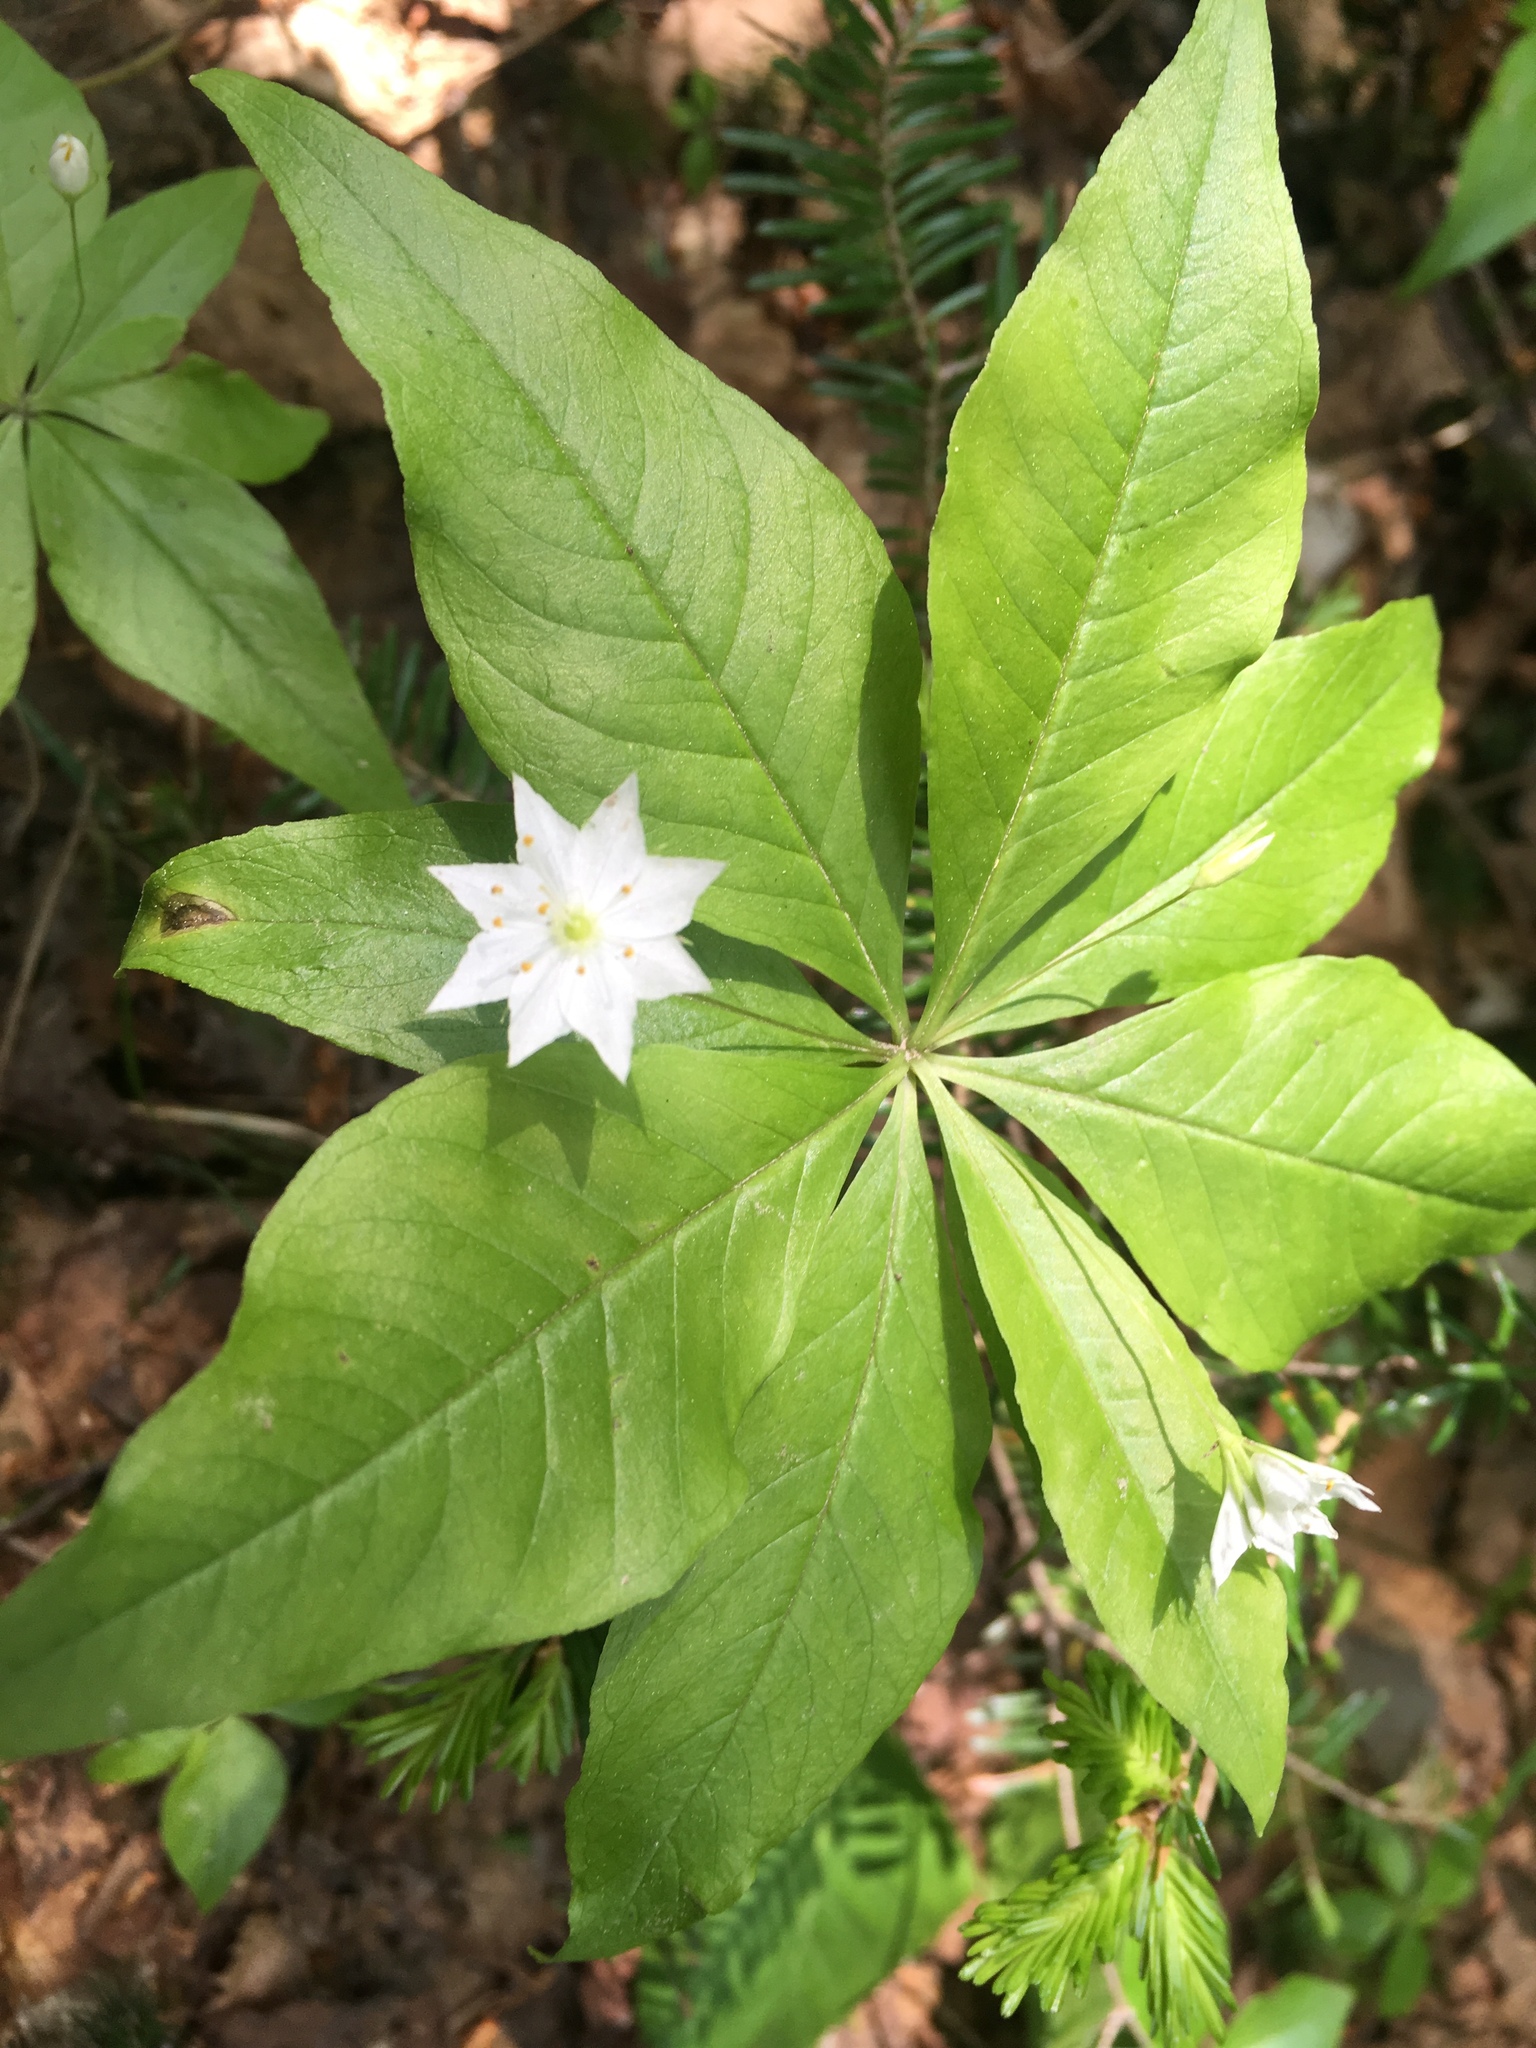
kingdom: Plantae
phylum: Tracheophyta
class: Magnoliopsida
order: Ericales
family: Primulaceae
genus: Lysimachia
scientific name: Lysimachia borealis
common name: American starflower
